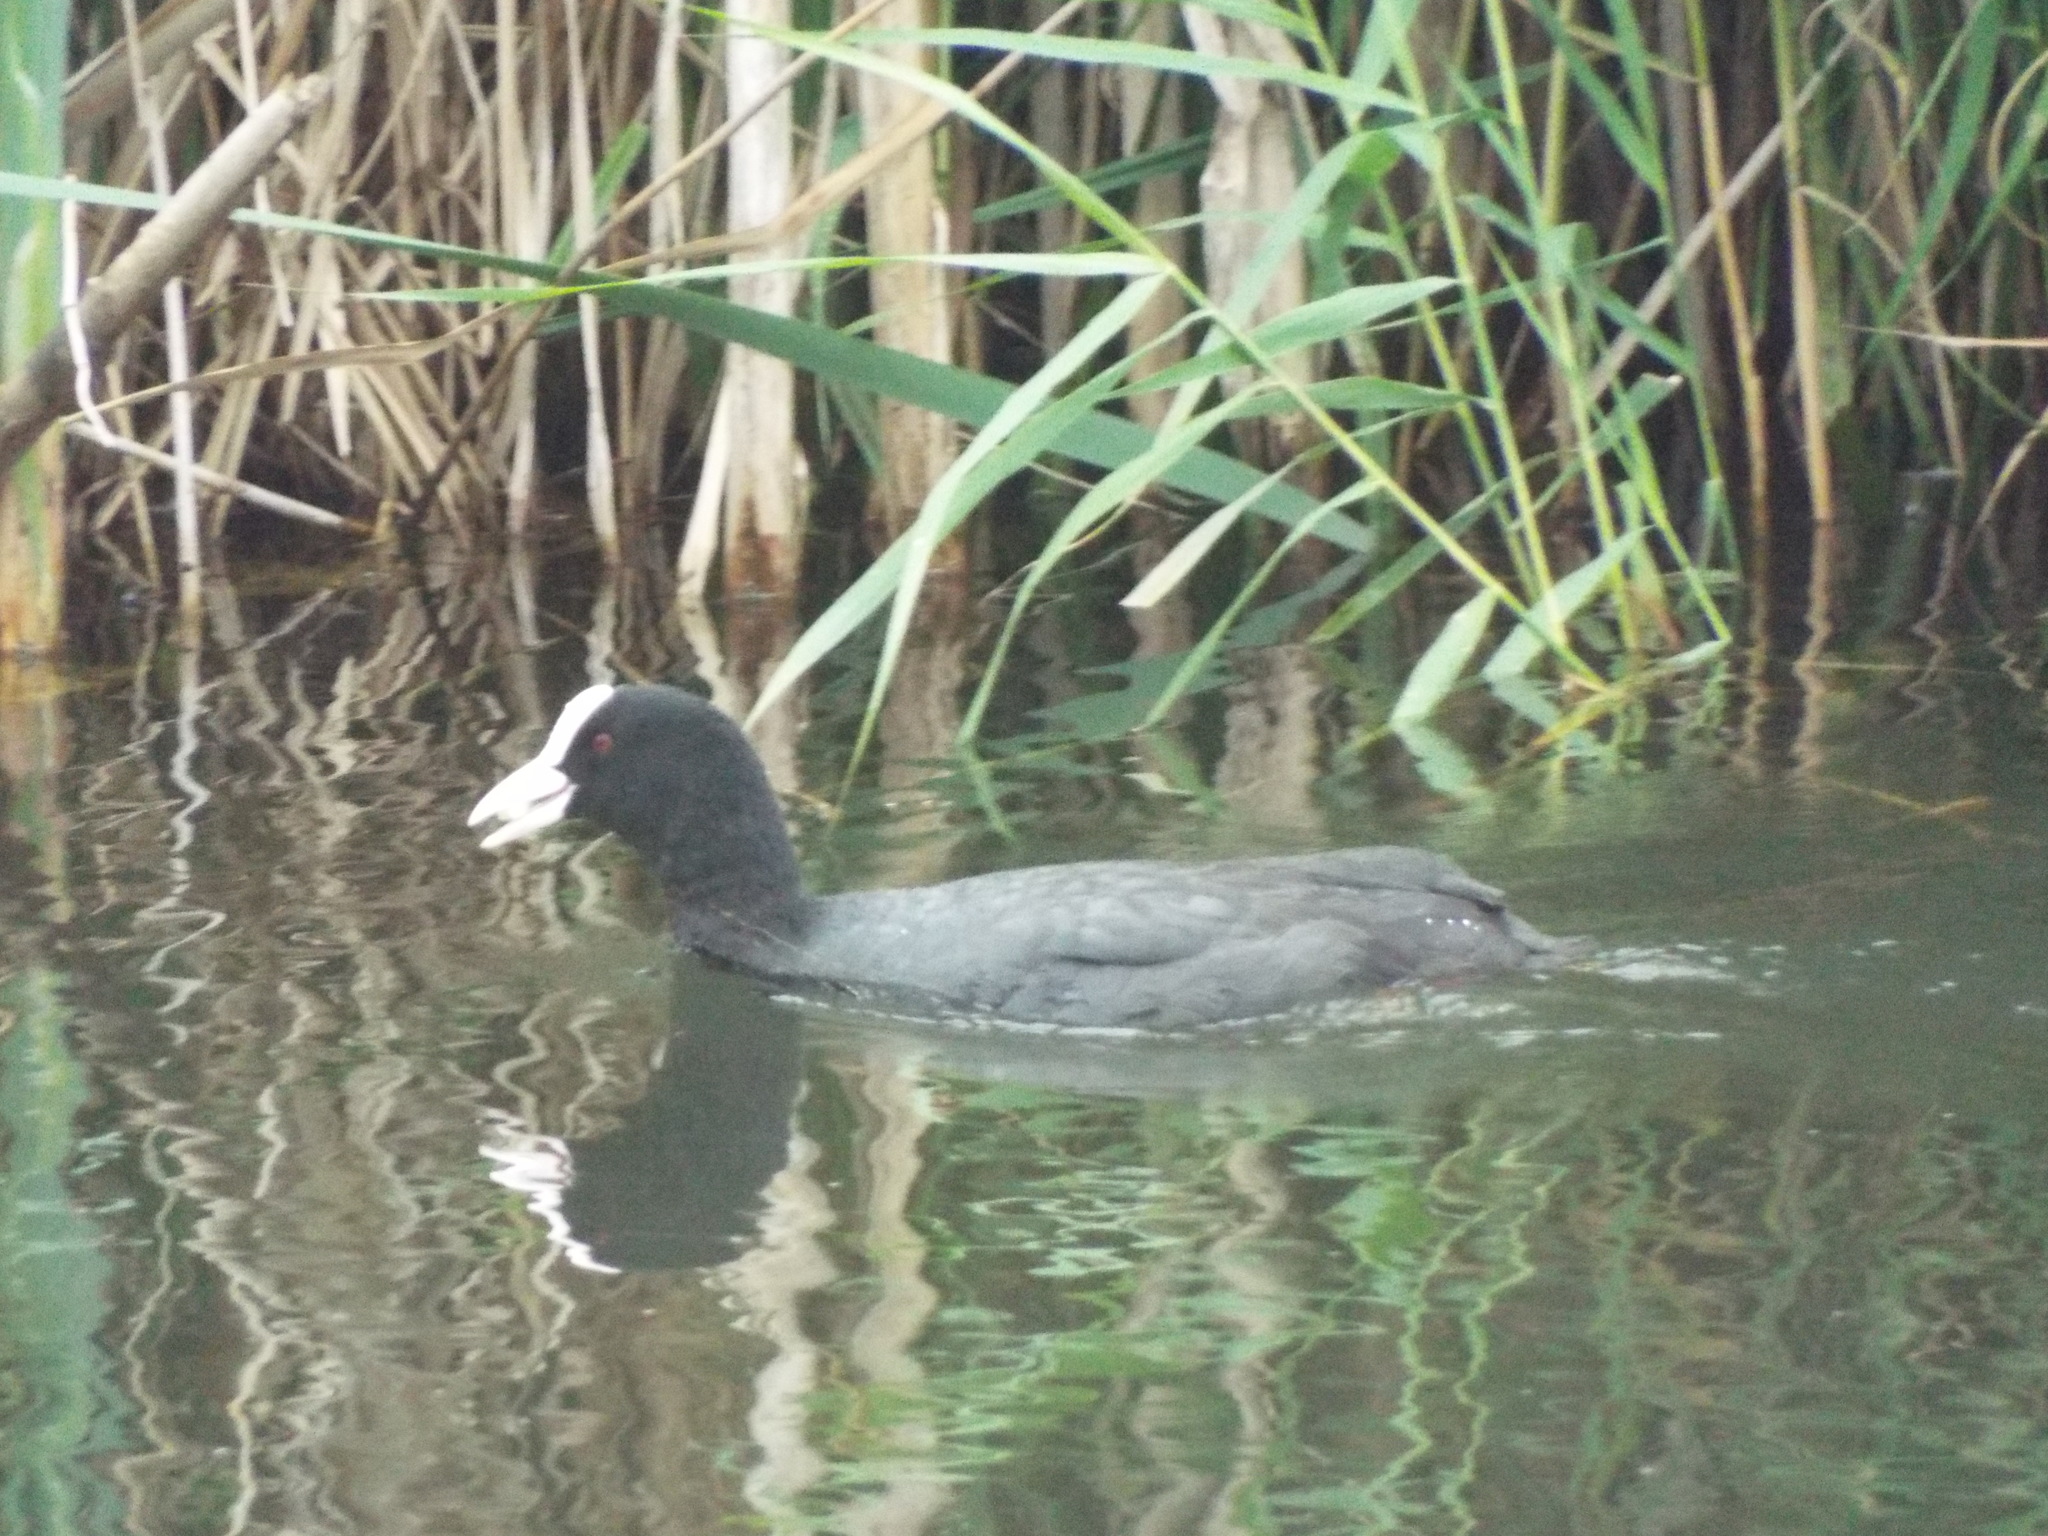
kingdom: Animalia
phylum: Chordata
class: Aves
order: Gruiformes
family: Rallidae
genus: Fulica
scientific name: Fulica atra
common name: Eurasian coot
